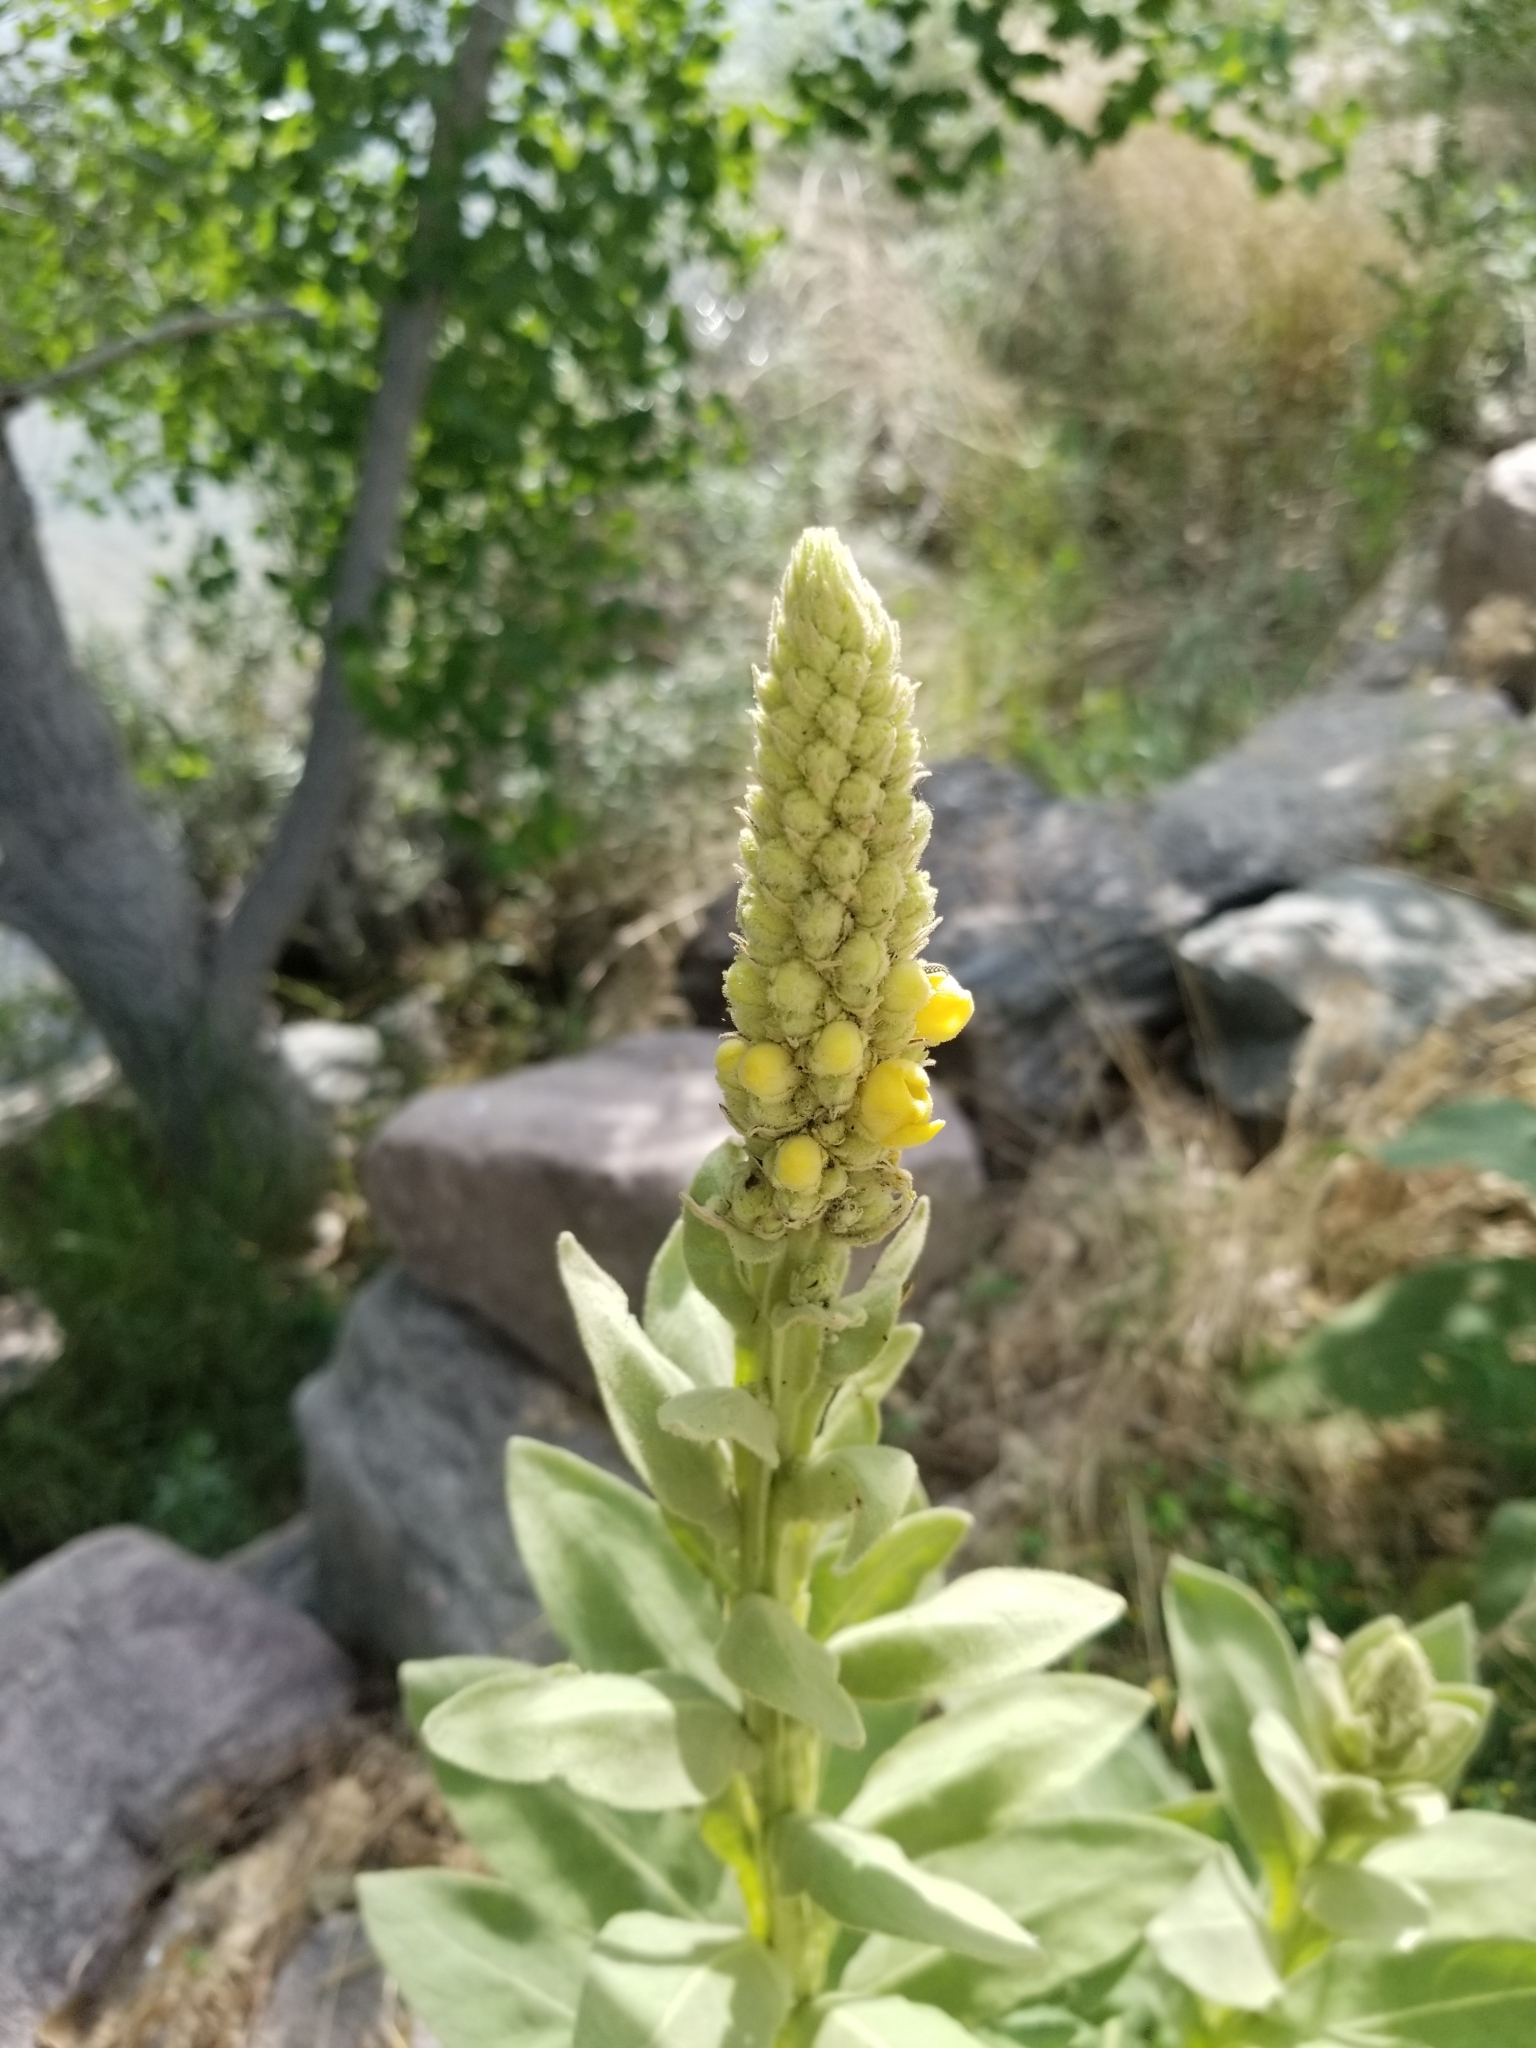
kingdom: Plantae
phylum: Tracheophyta
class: Magnoliopsida
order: Lamiales
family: Scrophulariaceae
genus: Verbascum
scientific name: Verbascum thapsus
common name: Common mullein
